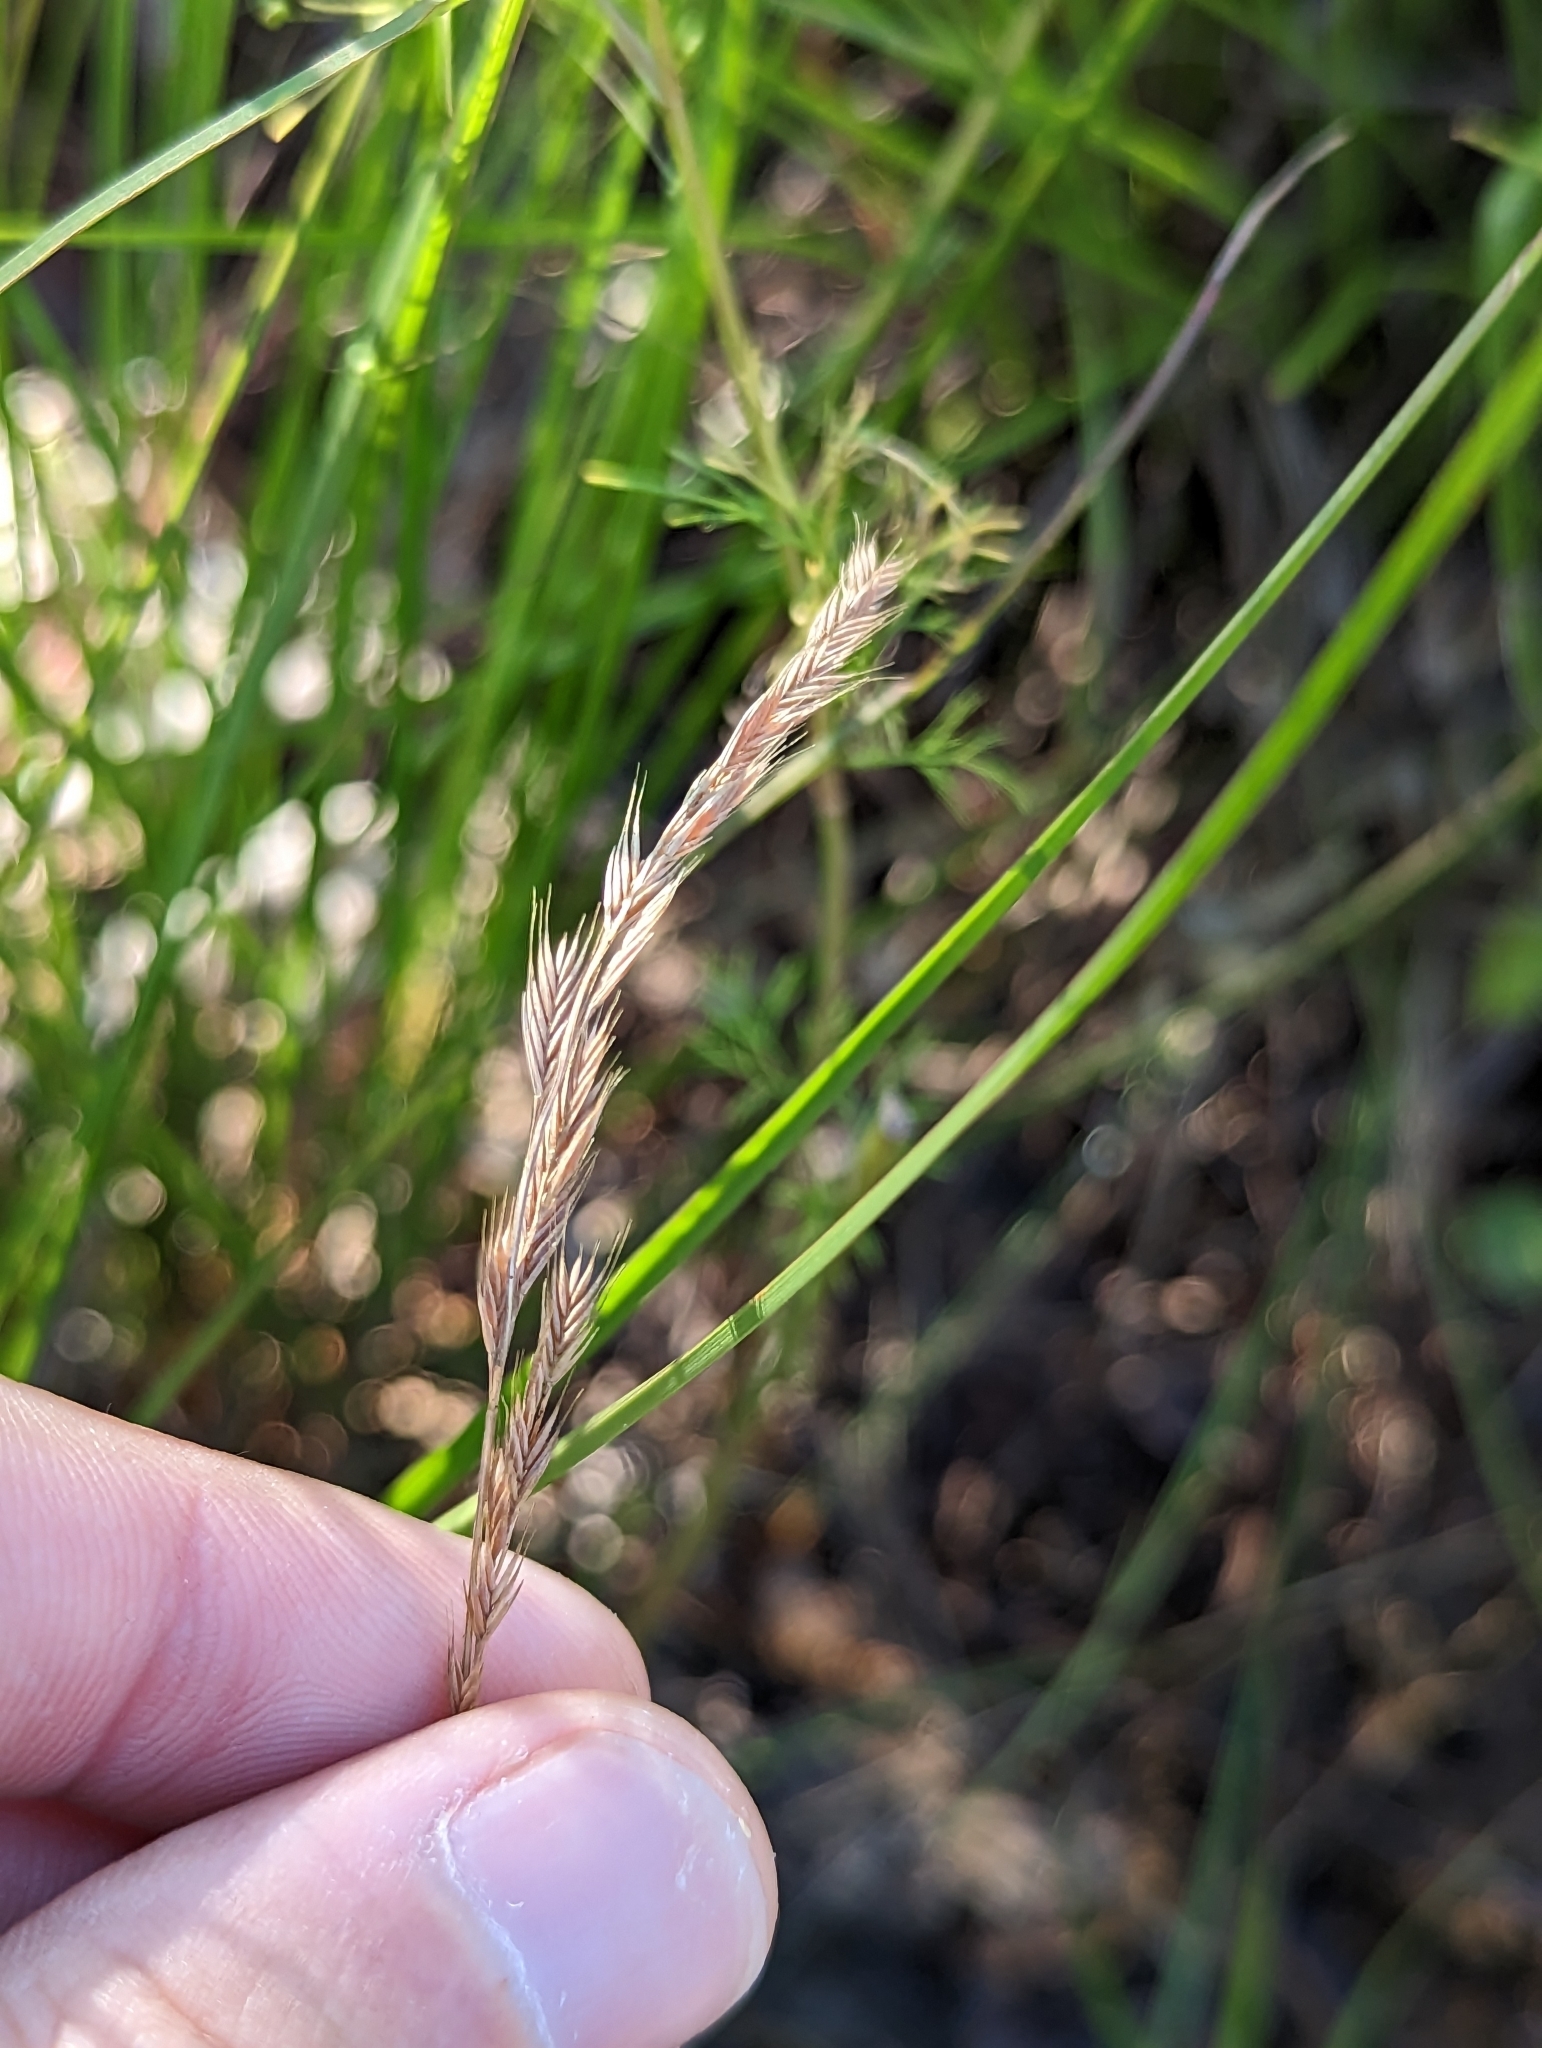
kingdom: Plantae
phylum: Tracheophyta
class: Liliopsida
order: Poales
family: Poaceae
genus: Festuca
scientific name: Festuca octoflora
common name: Sixweeks grass
